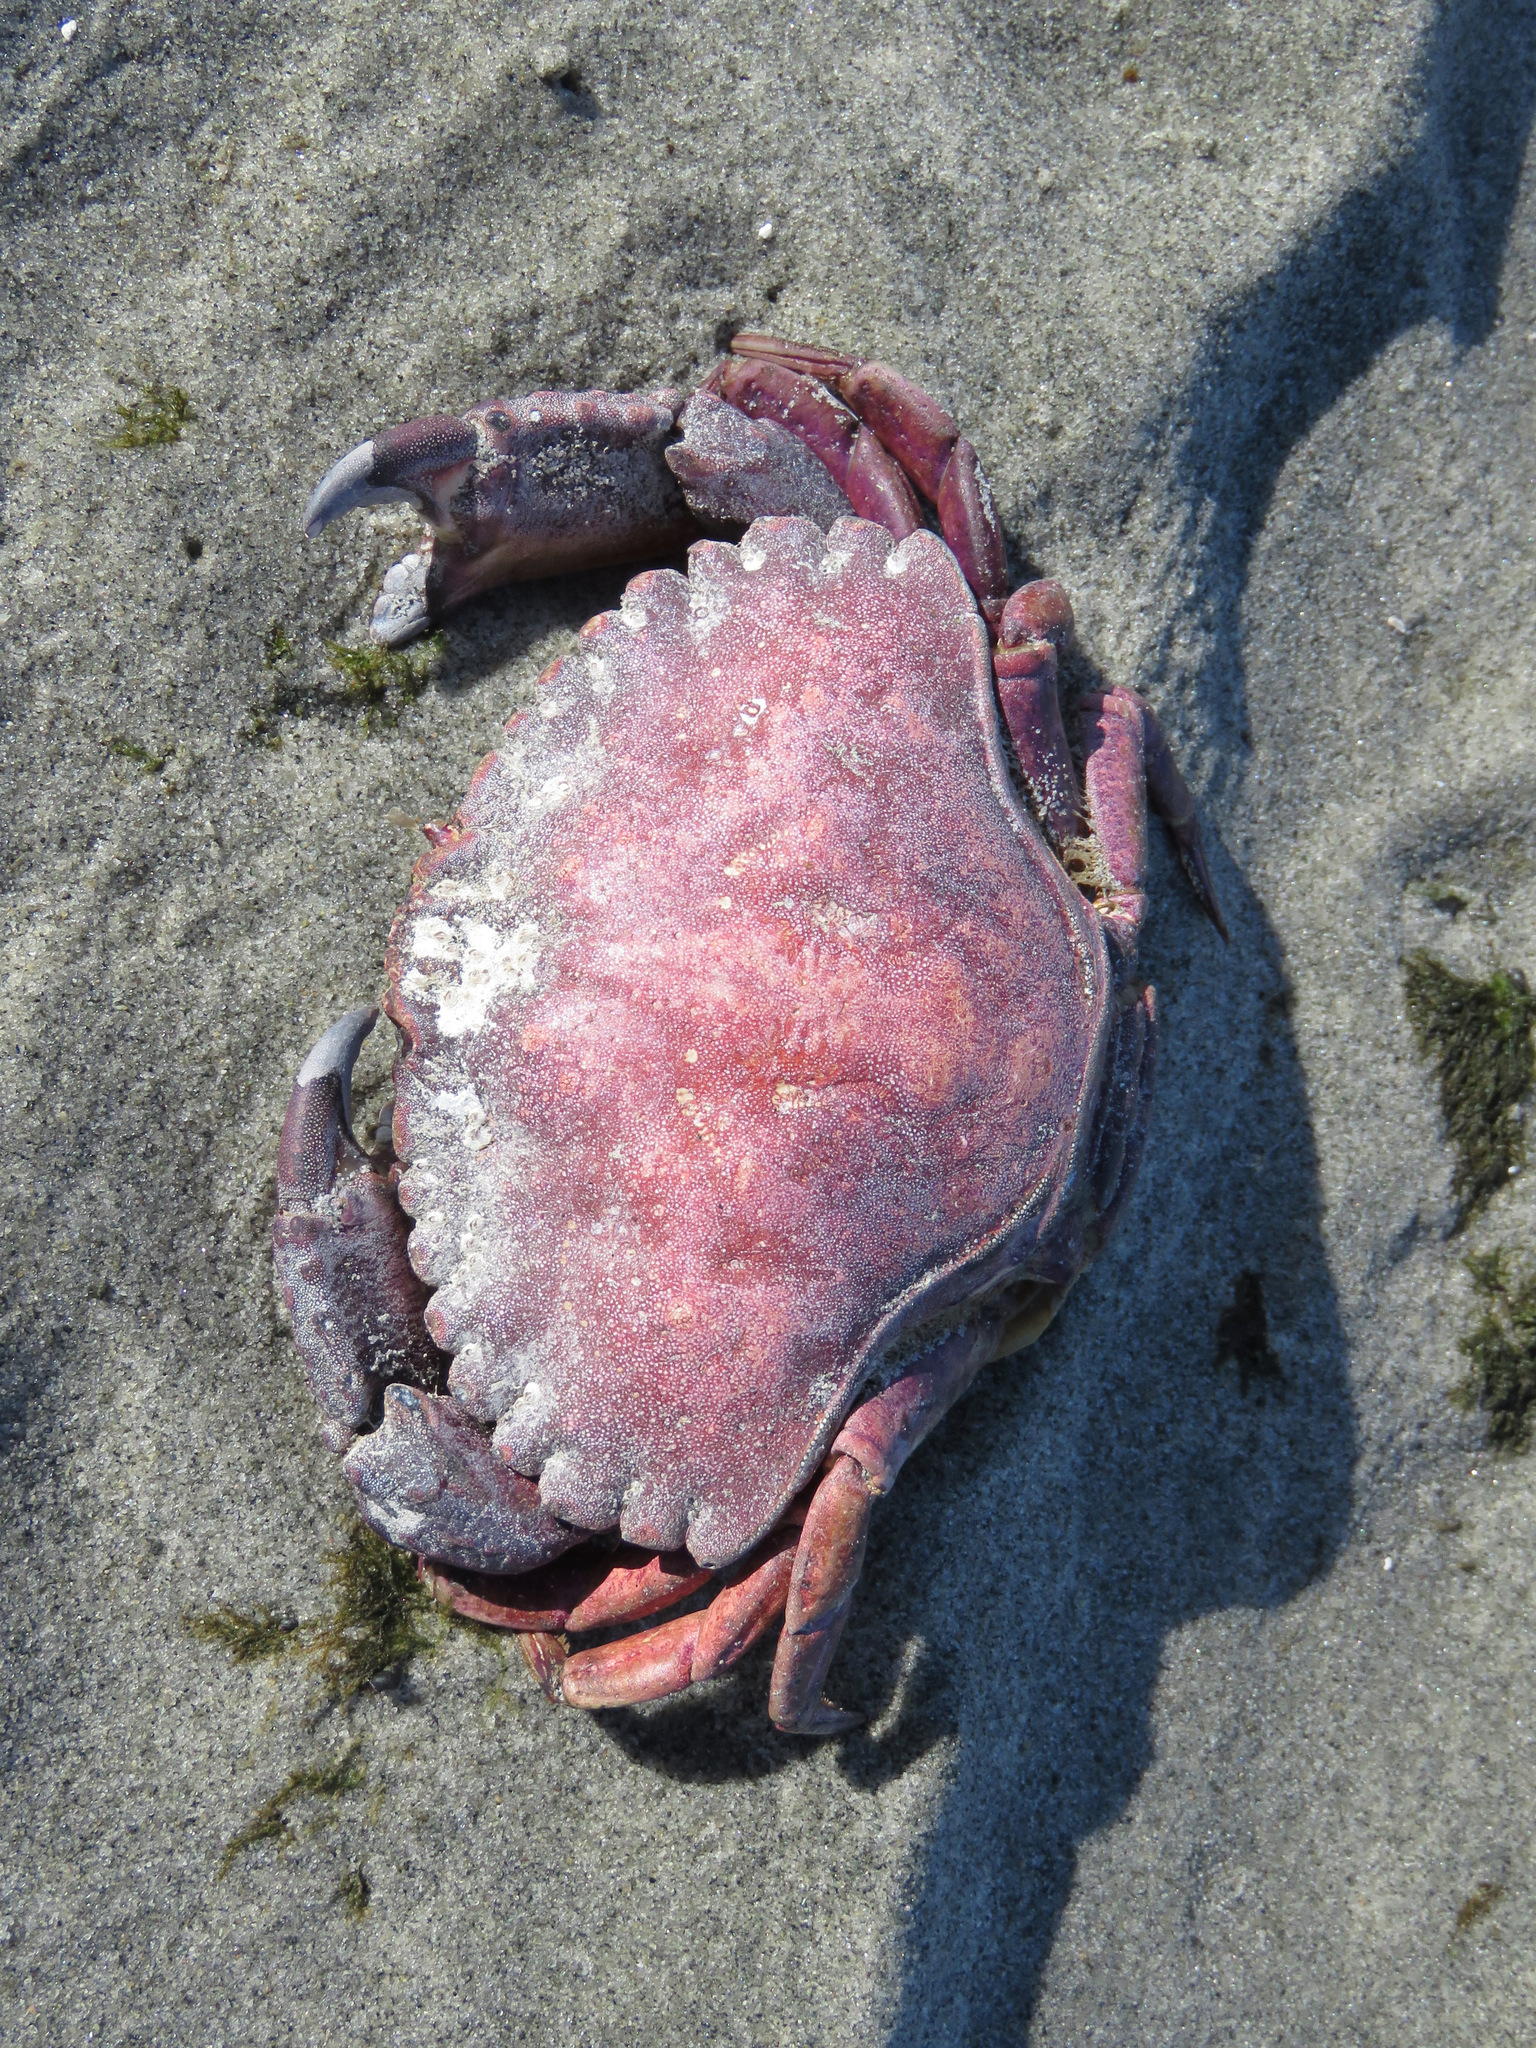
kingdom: Animalia
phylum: Arthropoda
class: Malacostraca
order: Decapoda
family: Cancridae
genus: Cancer
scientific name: Cancer productus
